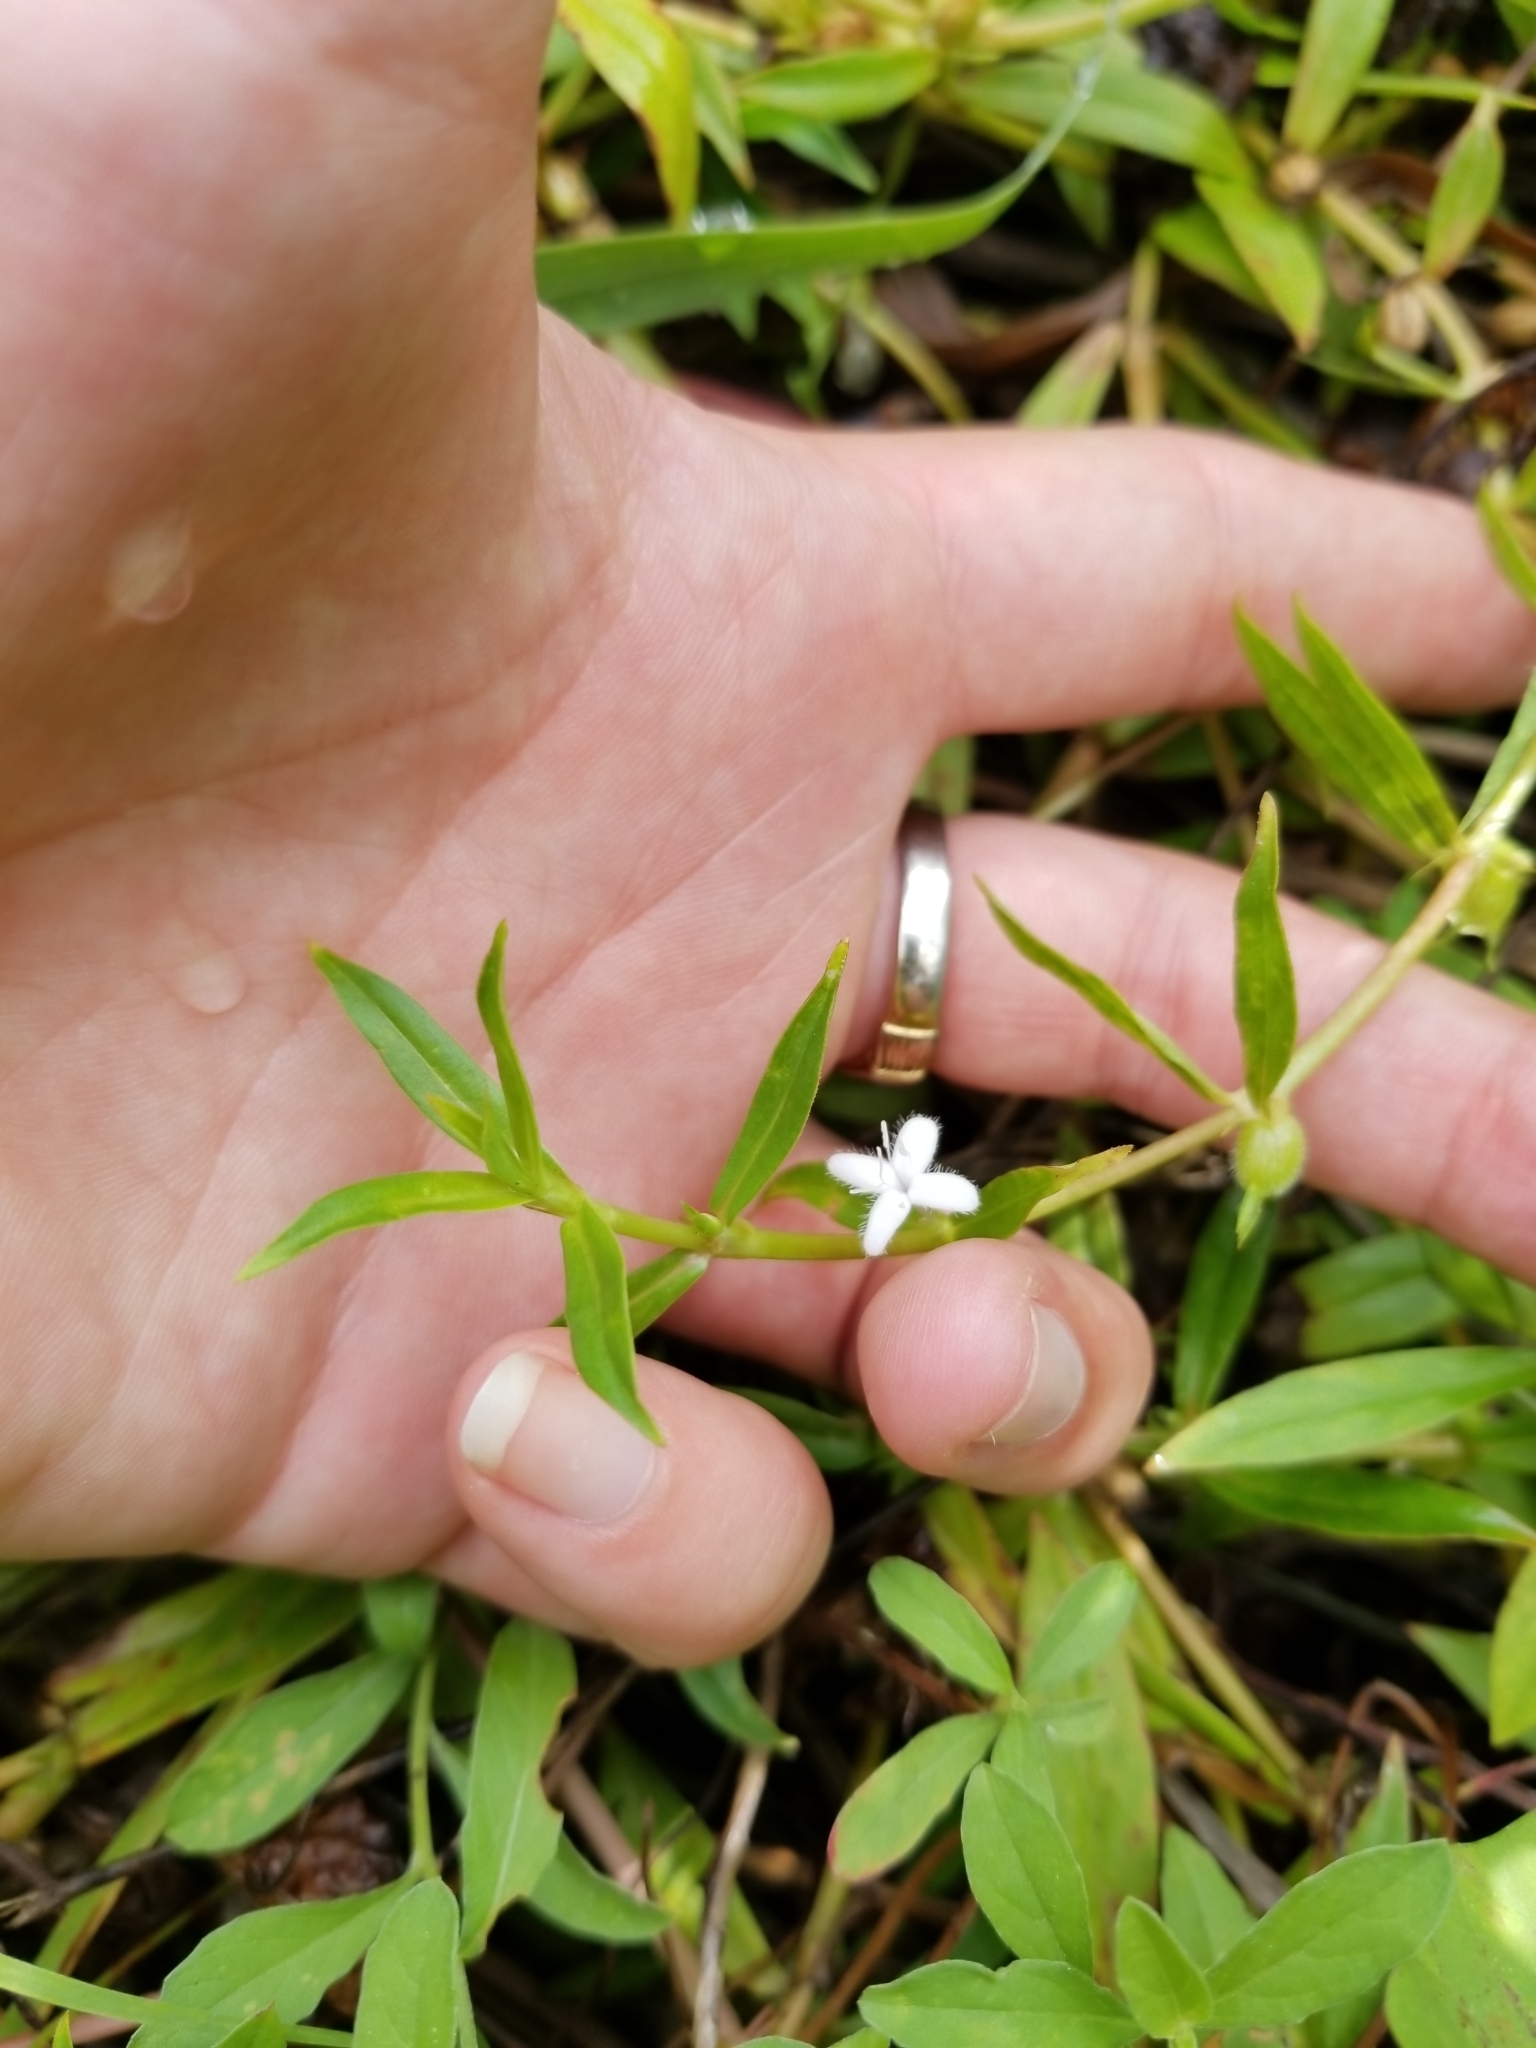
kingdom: Plantae
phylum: Tracheophyta
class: Magnoliopsida
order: Gentianales
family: Rubiaceae
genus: Diodia
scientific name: Diodia virginiana
